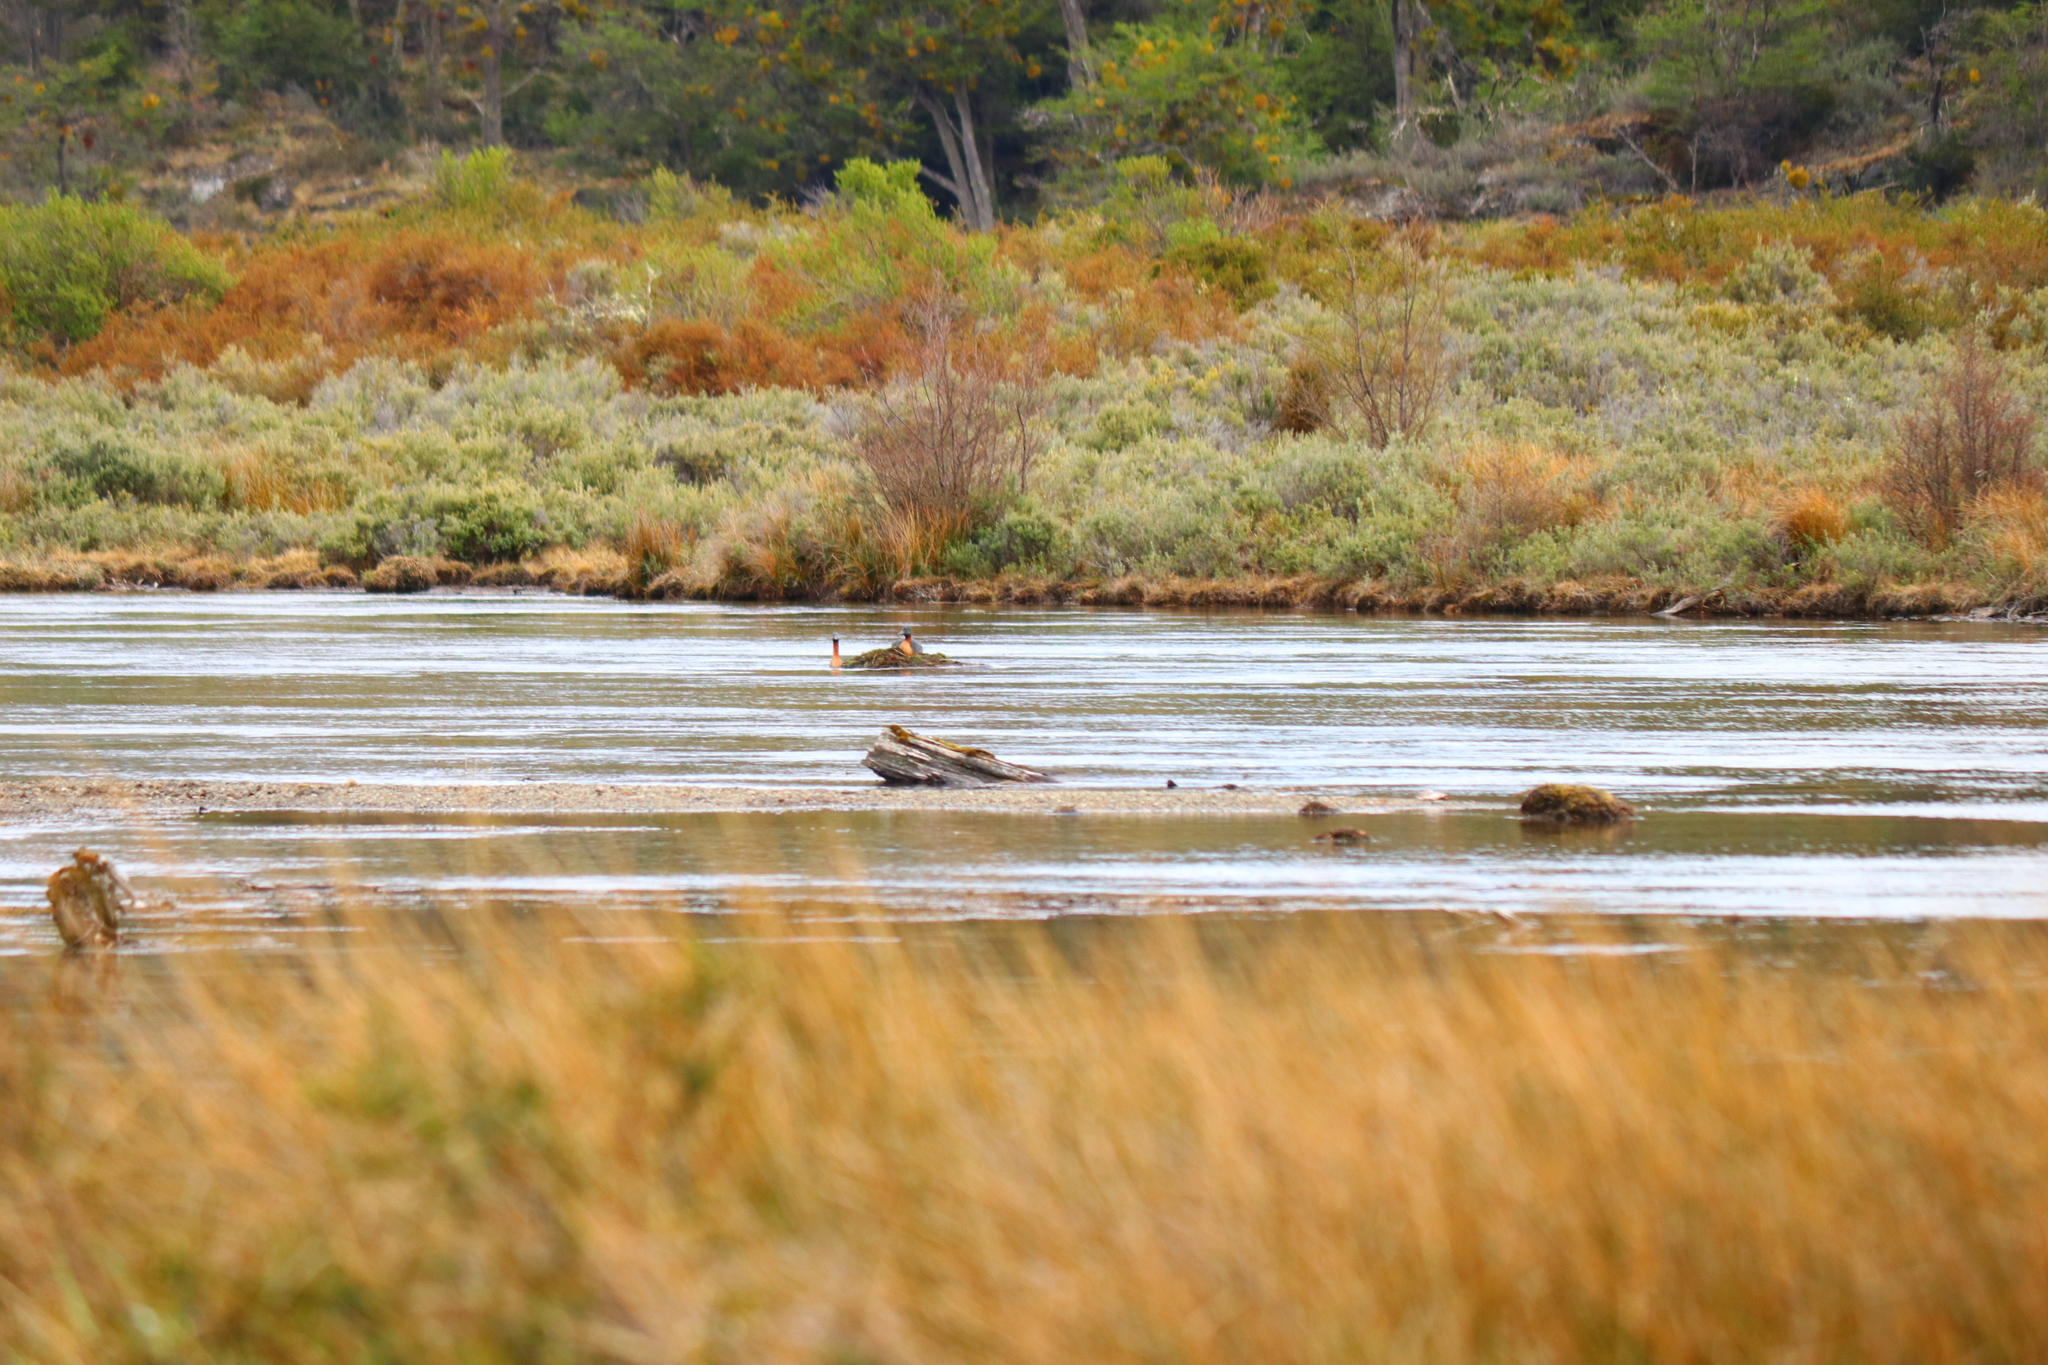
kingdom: Animalia
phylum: Chordata
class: Aves
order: Podicipediformes
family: Podicipedidae
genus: Podiceps
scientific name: Podiceps major
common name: Great grebe
